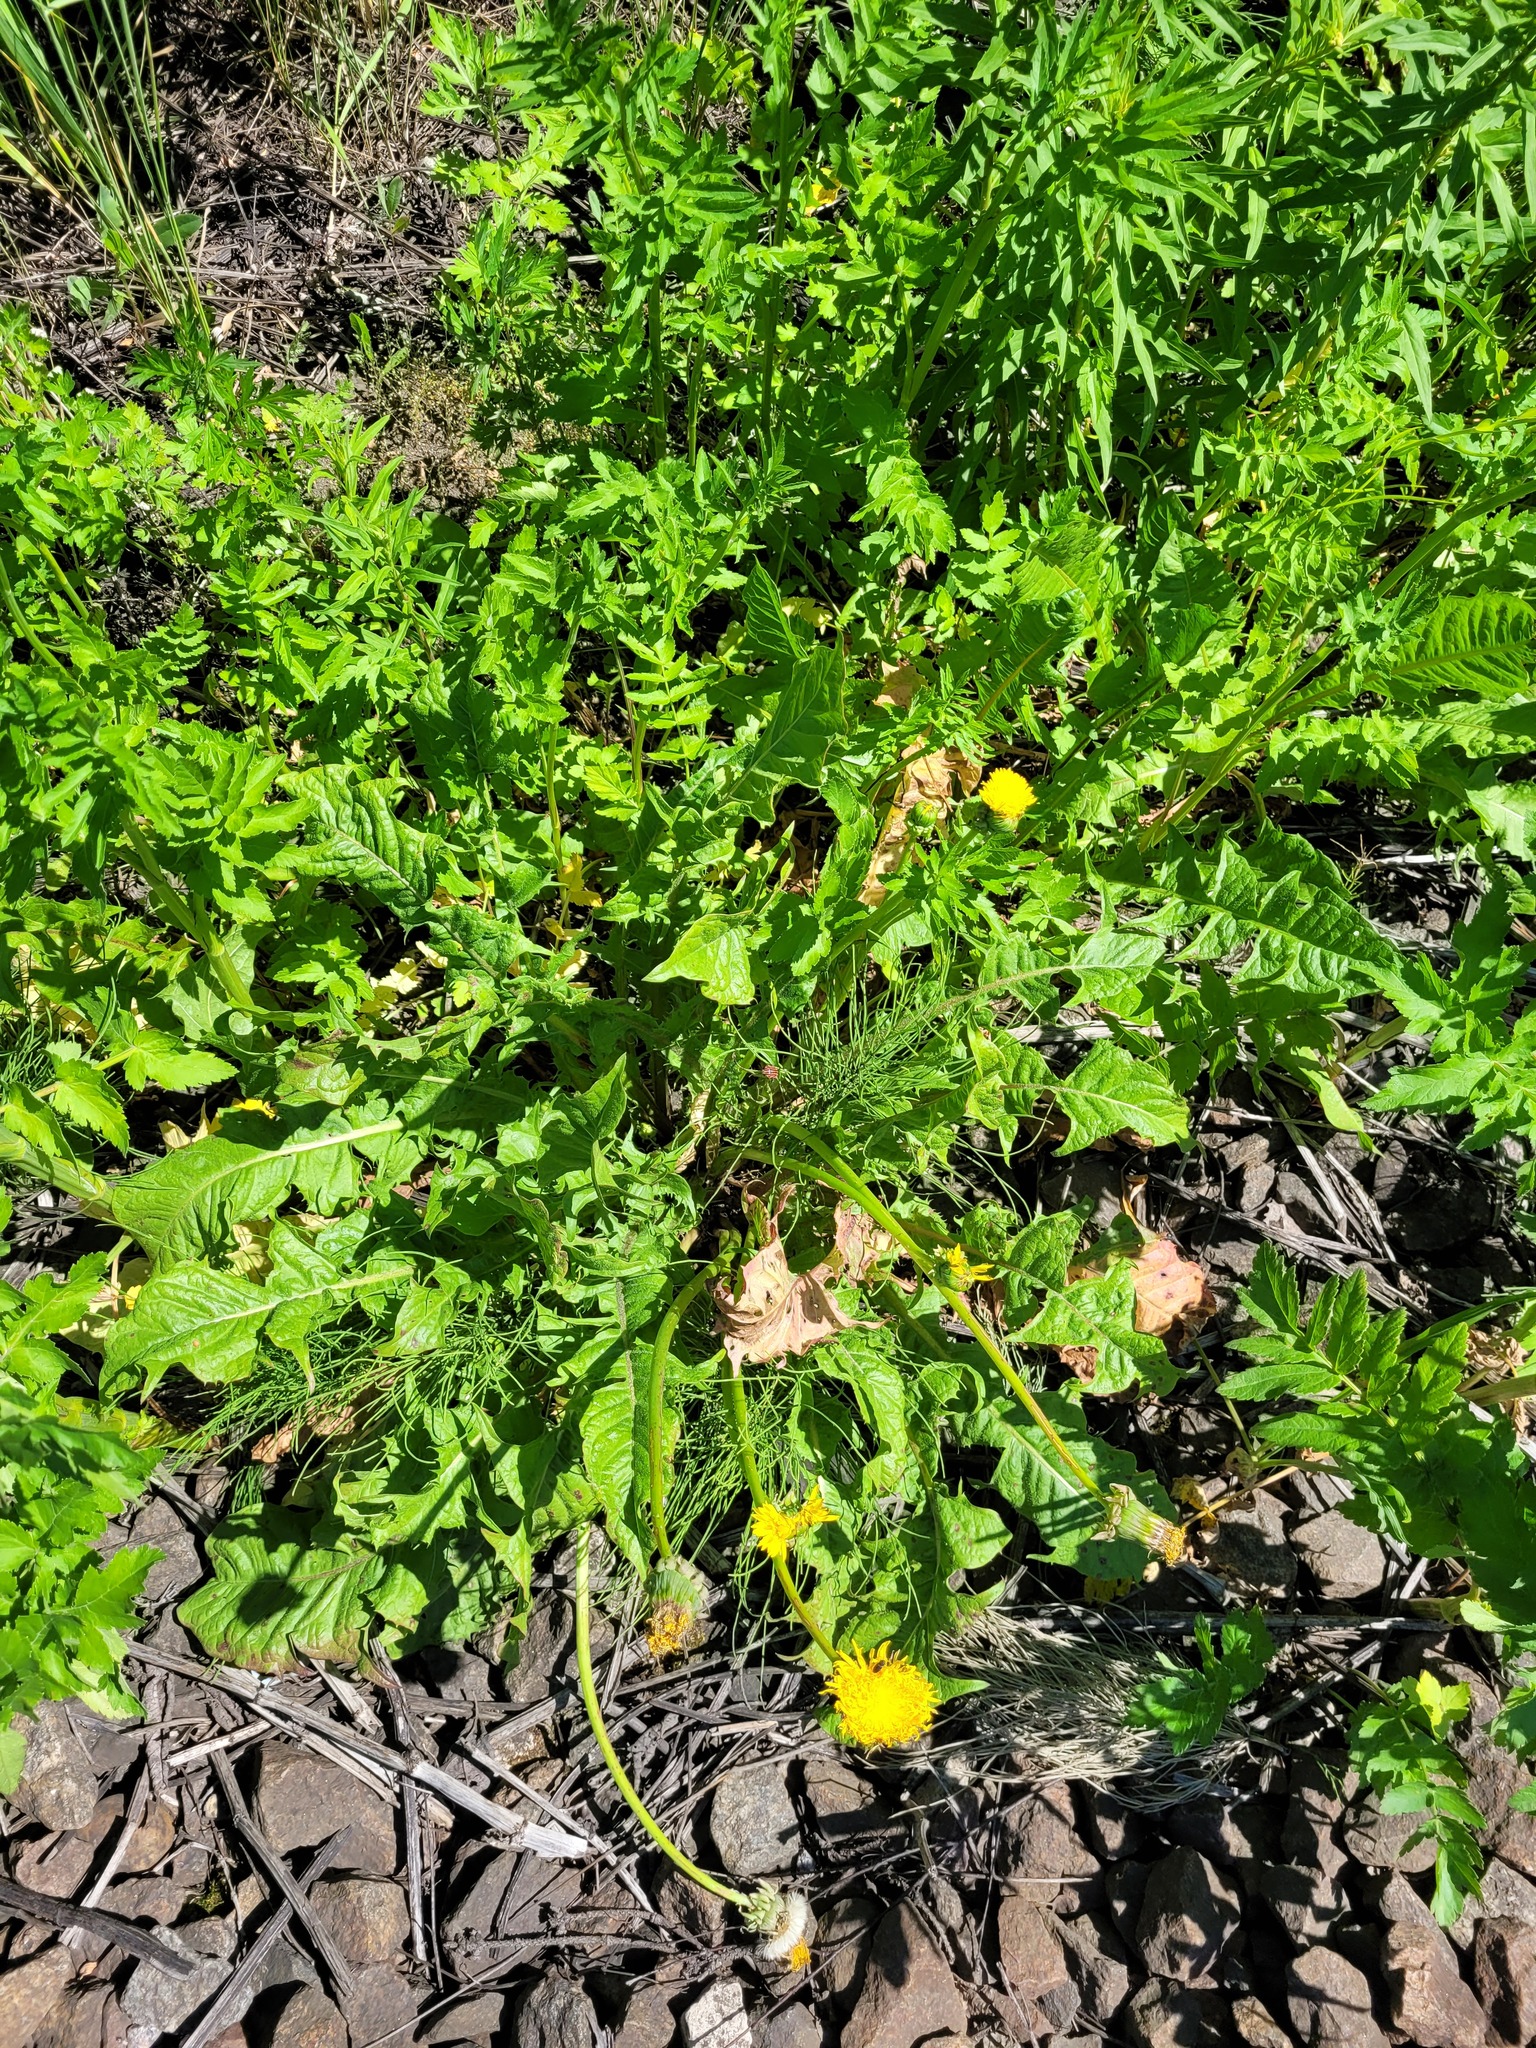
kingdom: Plantae
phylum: Tracheophyta
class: Magnoliopsida
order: Asterales
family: Asteraceae
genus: Taraxacum
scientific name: Taraxacum officinale
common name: Common dandelion
